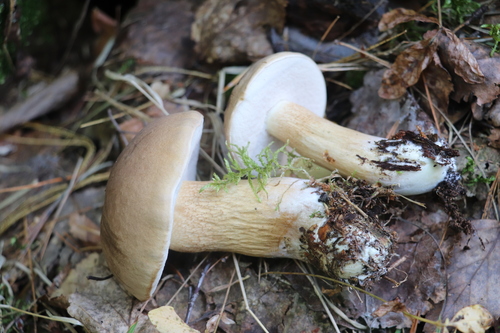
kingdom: Fungi
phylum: Basidiomycota
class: Agaricomycetes
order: Boletales
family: Boletaceae
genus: Tylopilus
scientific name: Tylopilus felleus
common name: Bitter bolete
